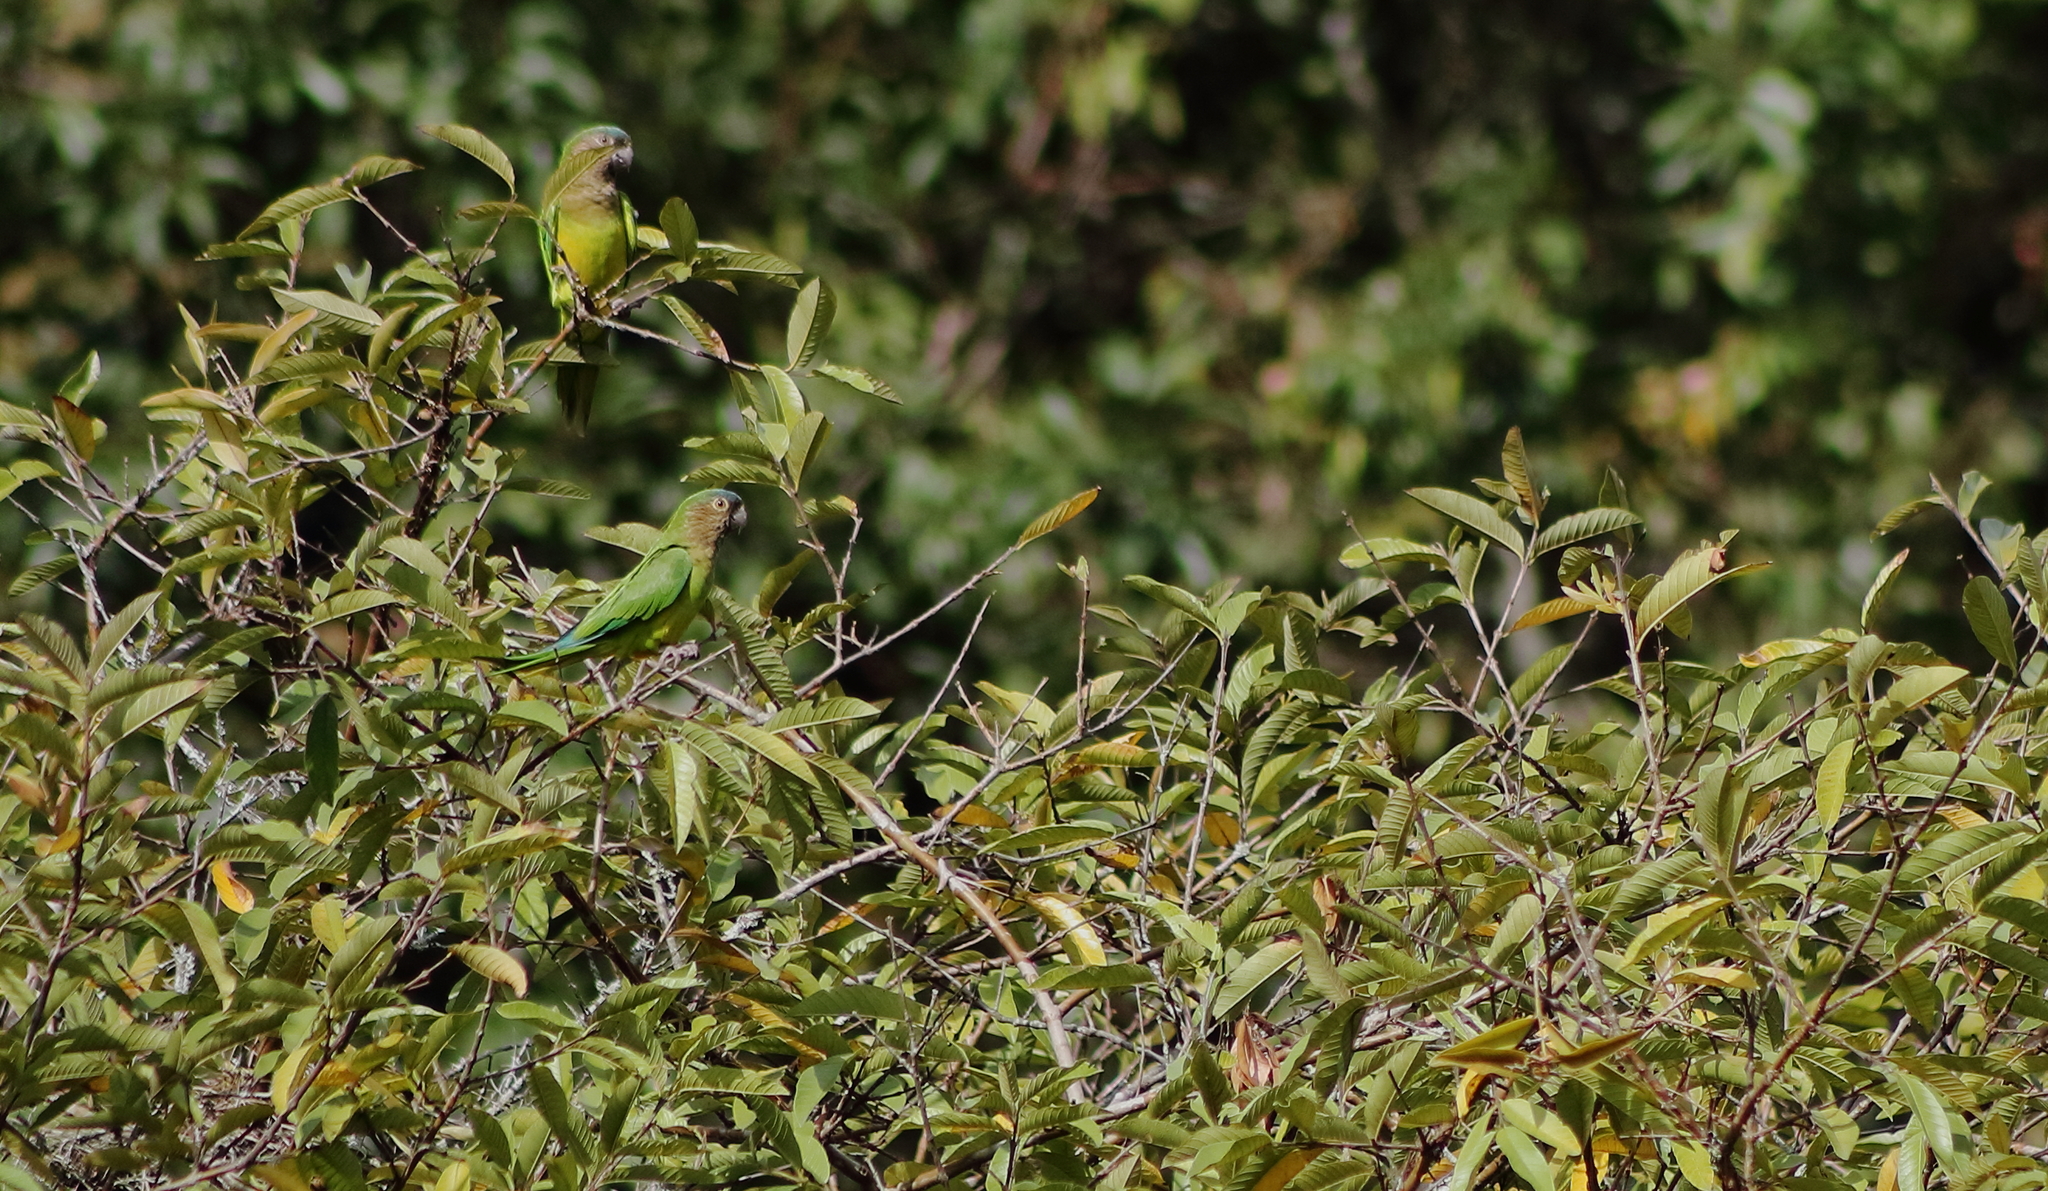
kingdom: Animalia
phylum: Chordata
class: Aves
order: Psittaciformes
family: Psittacidae
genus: Aratinga
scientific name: Aratinga pertinax
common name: Brown-throated parakeet
